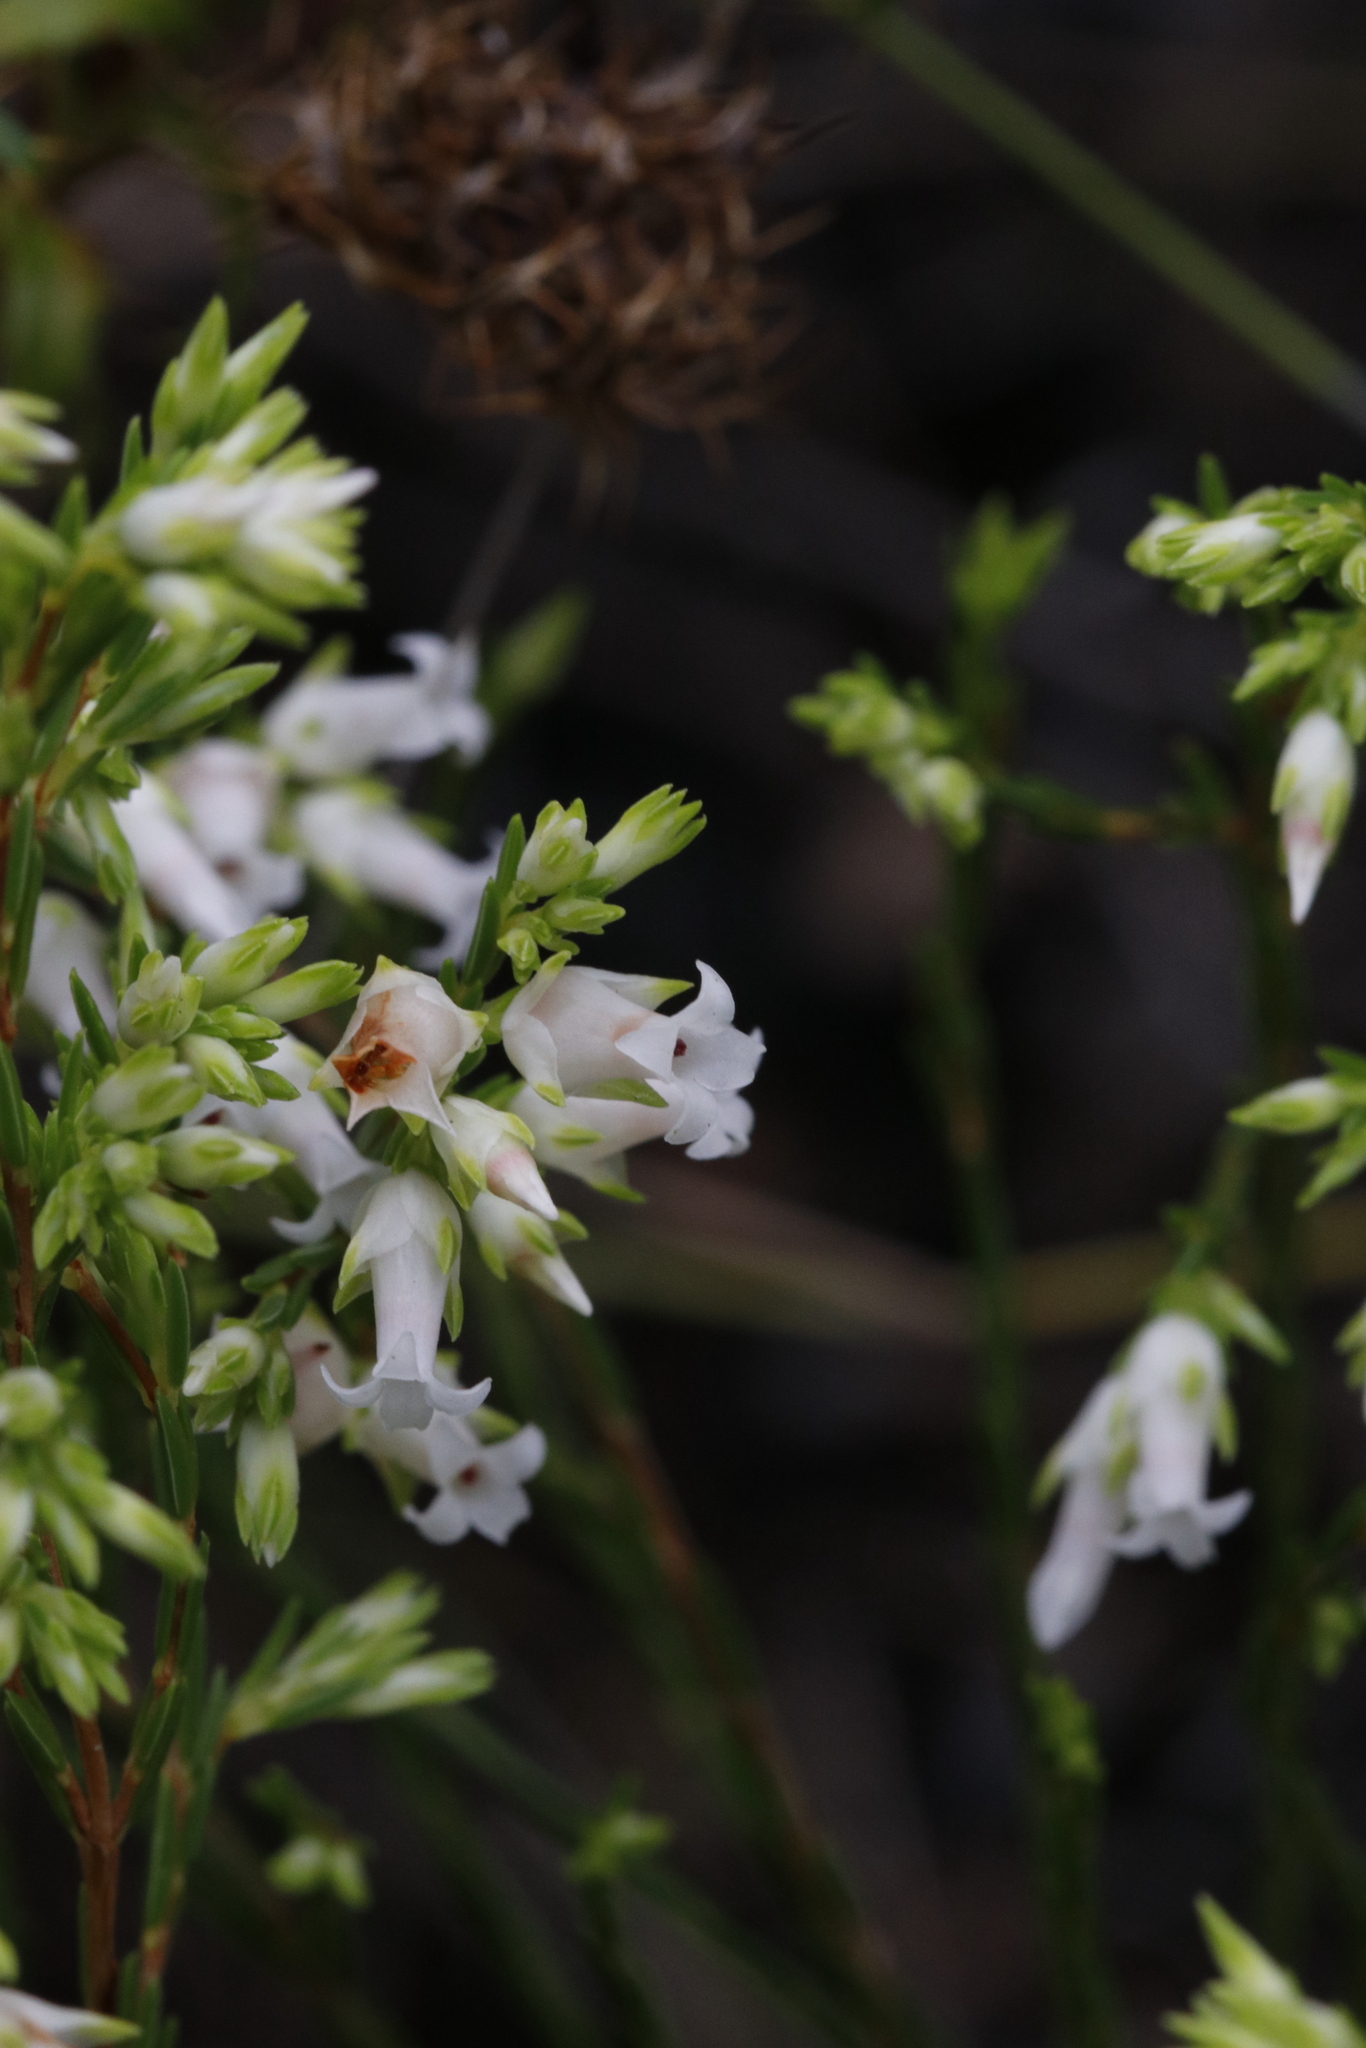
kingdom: Plantae
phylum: Tracheophyta
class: Magnoliopsida
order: Ericales
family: Ericaceae
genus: Erica
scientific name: Erica lutea
